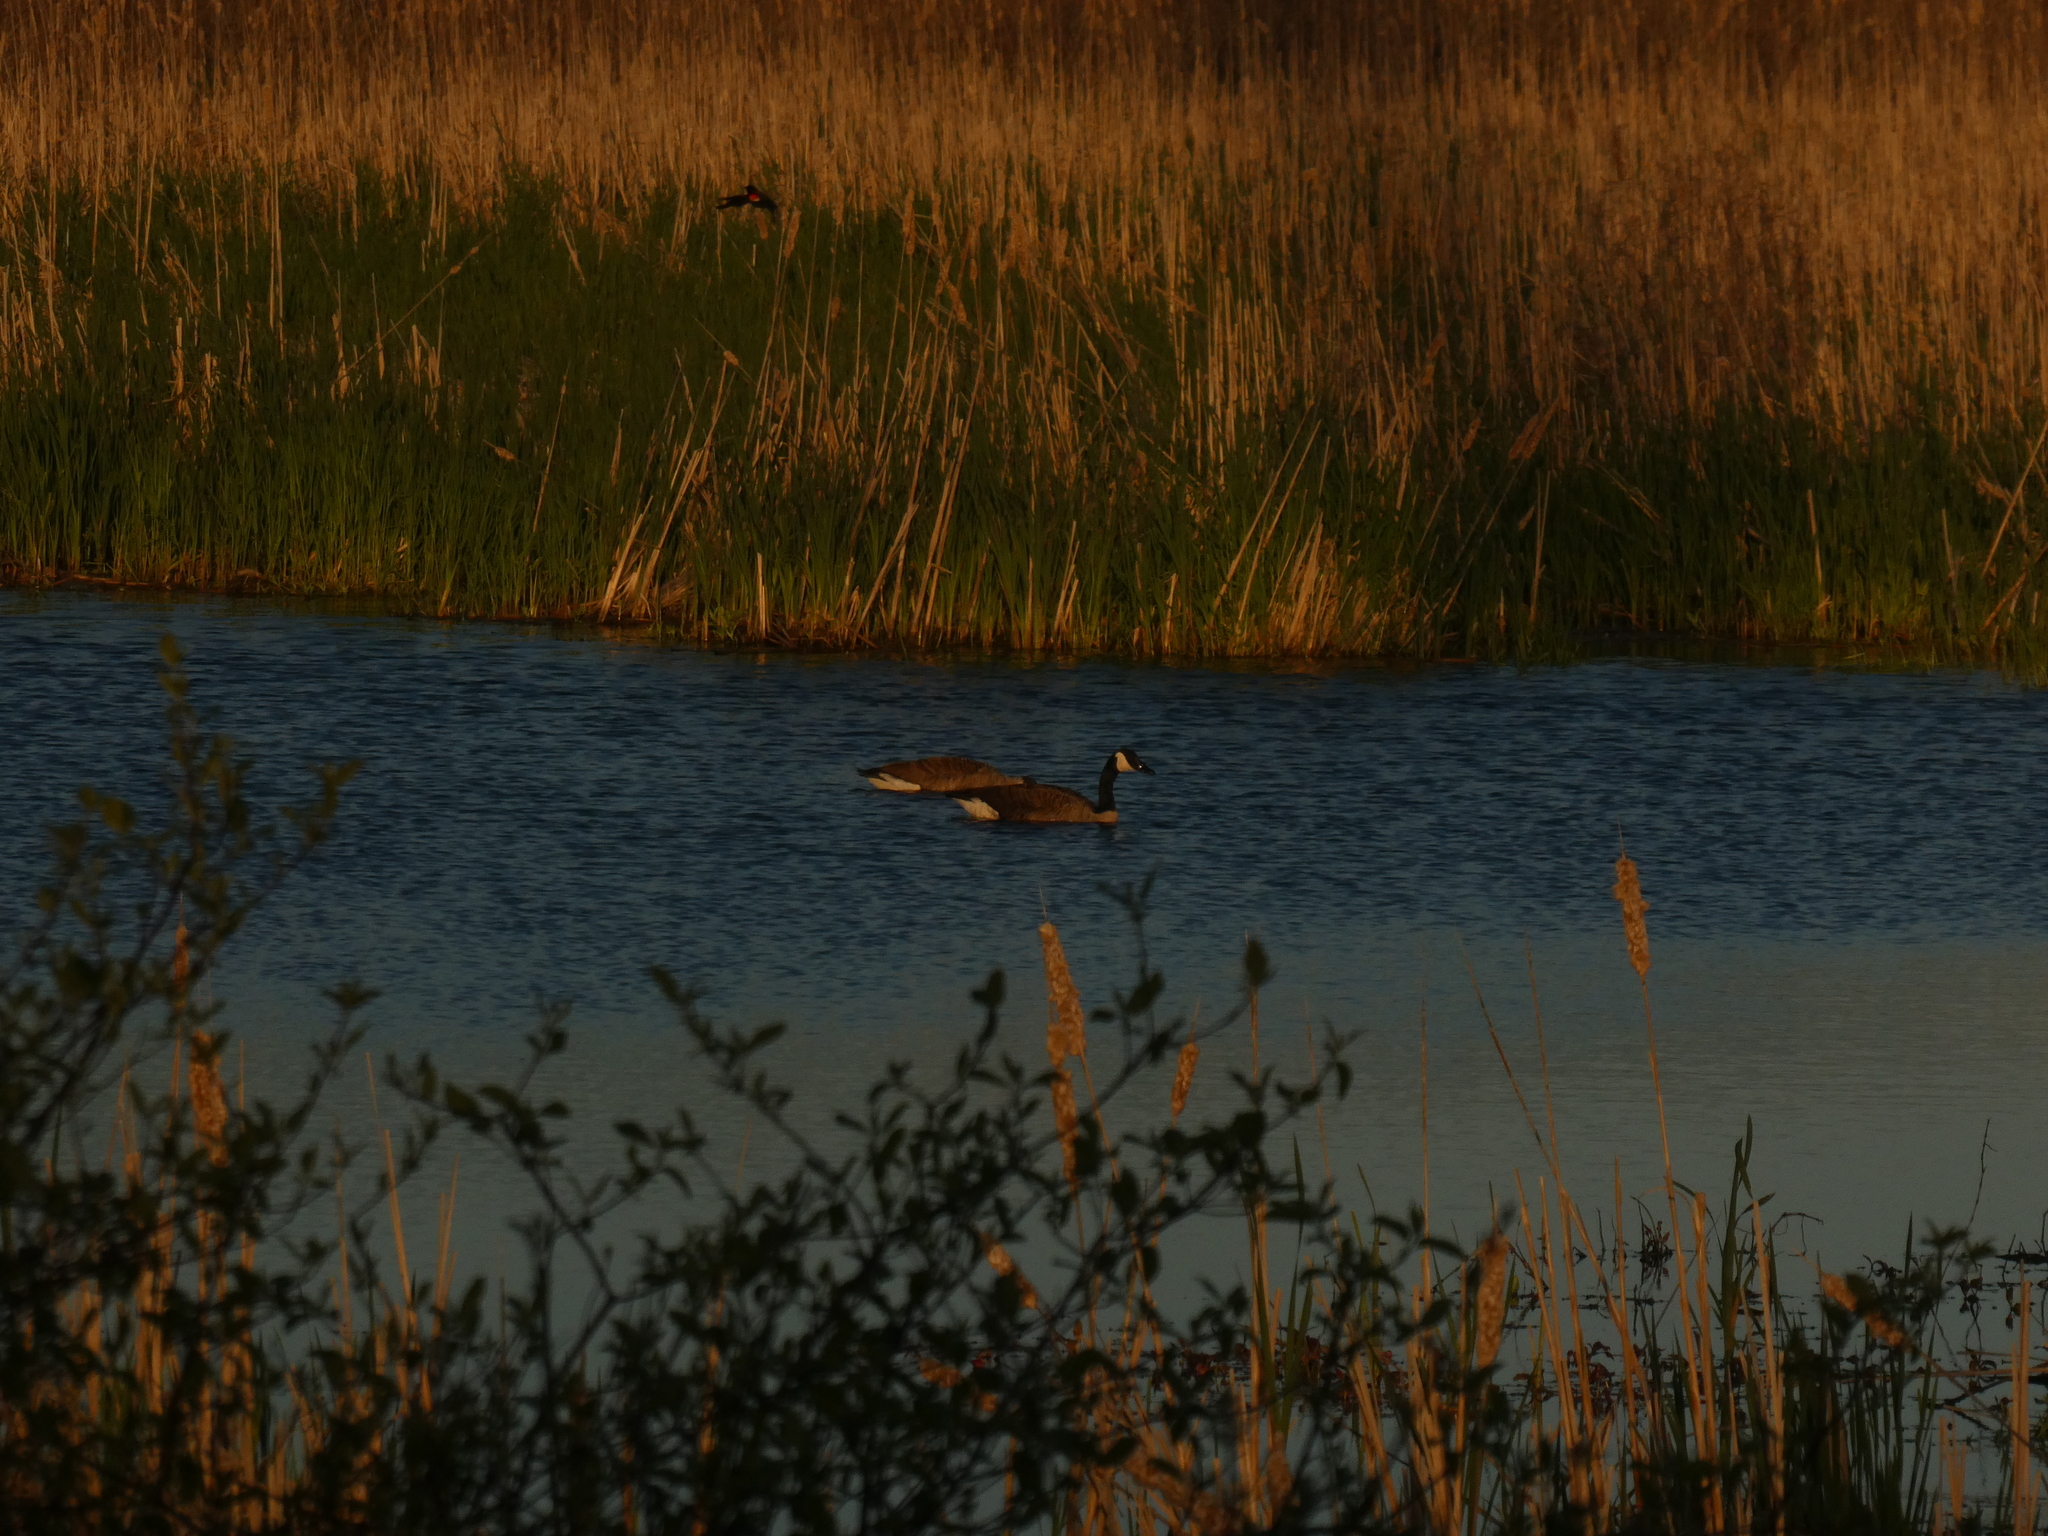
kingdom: Animalia
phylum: Chordata
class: Aves
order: Anseriformes
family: Anatidae
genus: Branta
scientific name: Branta canadensis
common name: Canada goose
